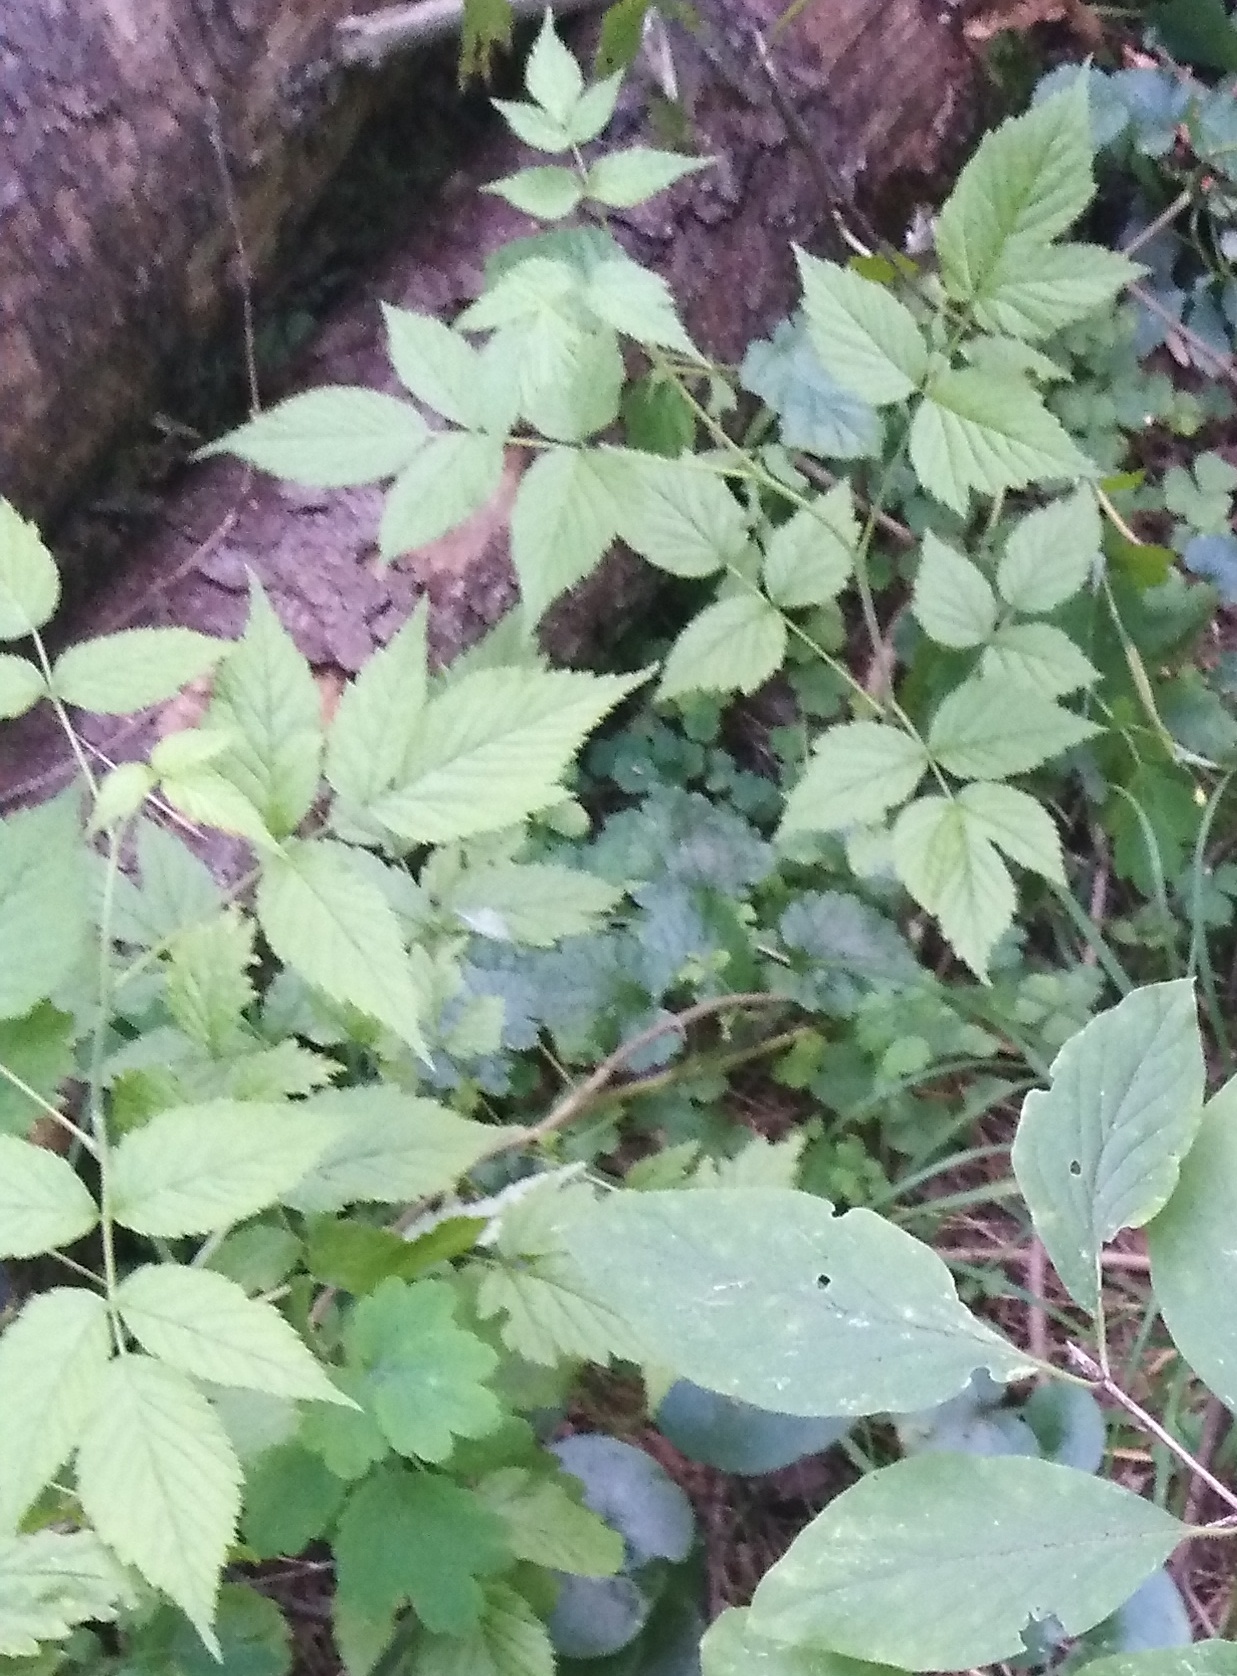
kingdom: Plantae
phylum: Tracheophyta
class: Magnoliopsida
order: Rosales
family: Rosaceae
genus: Rubus
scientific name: Rubus saxatilis
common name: Stone bramble
